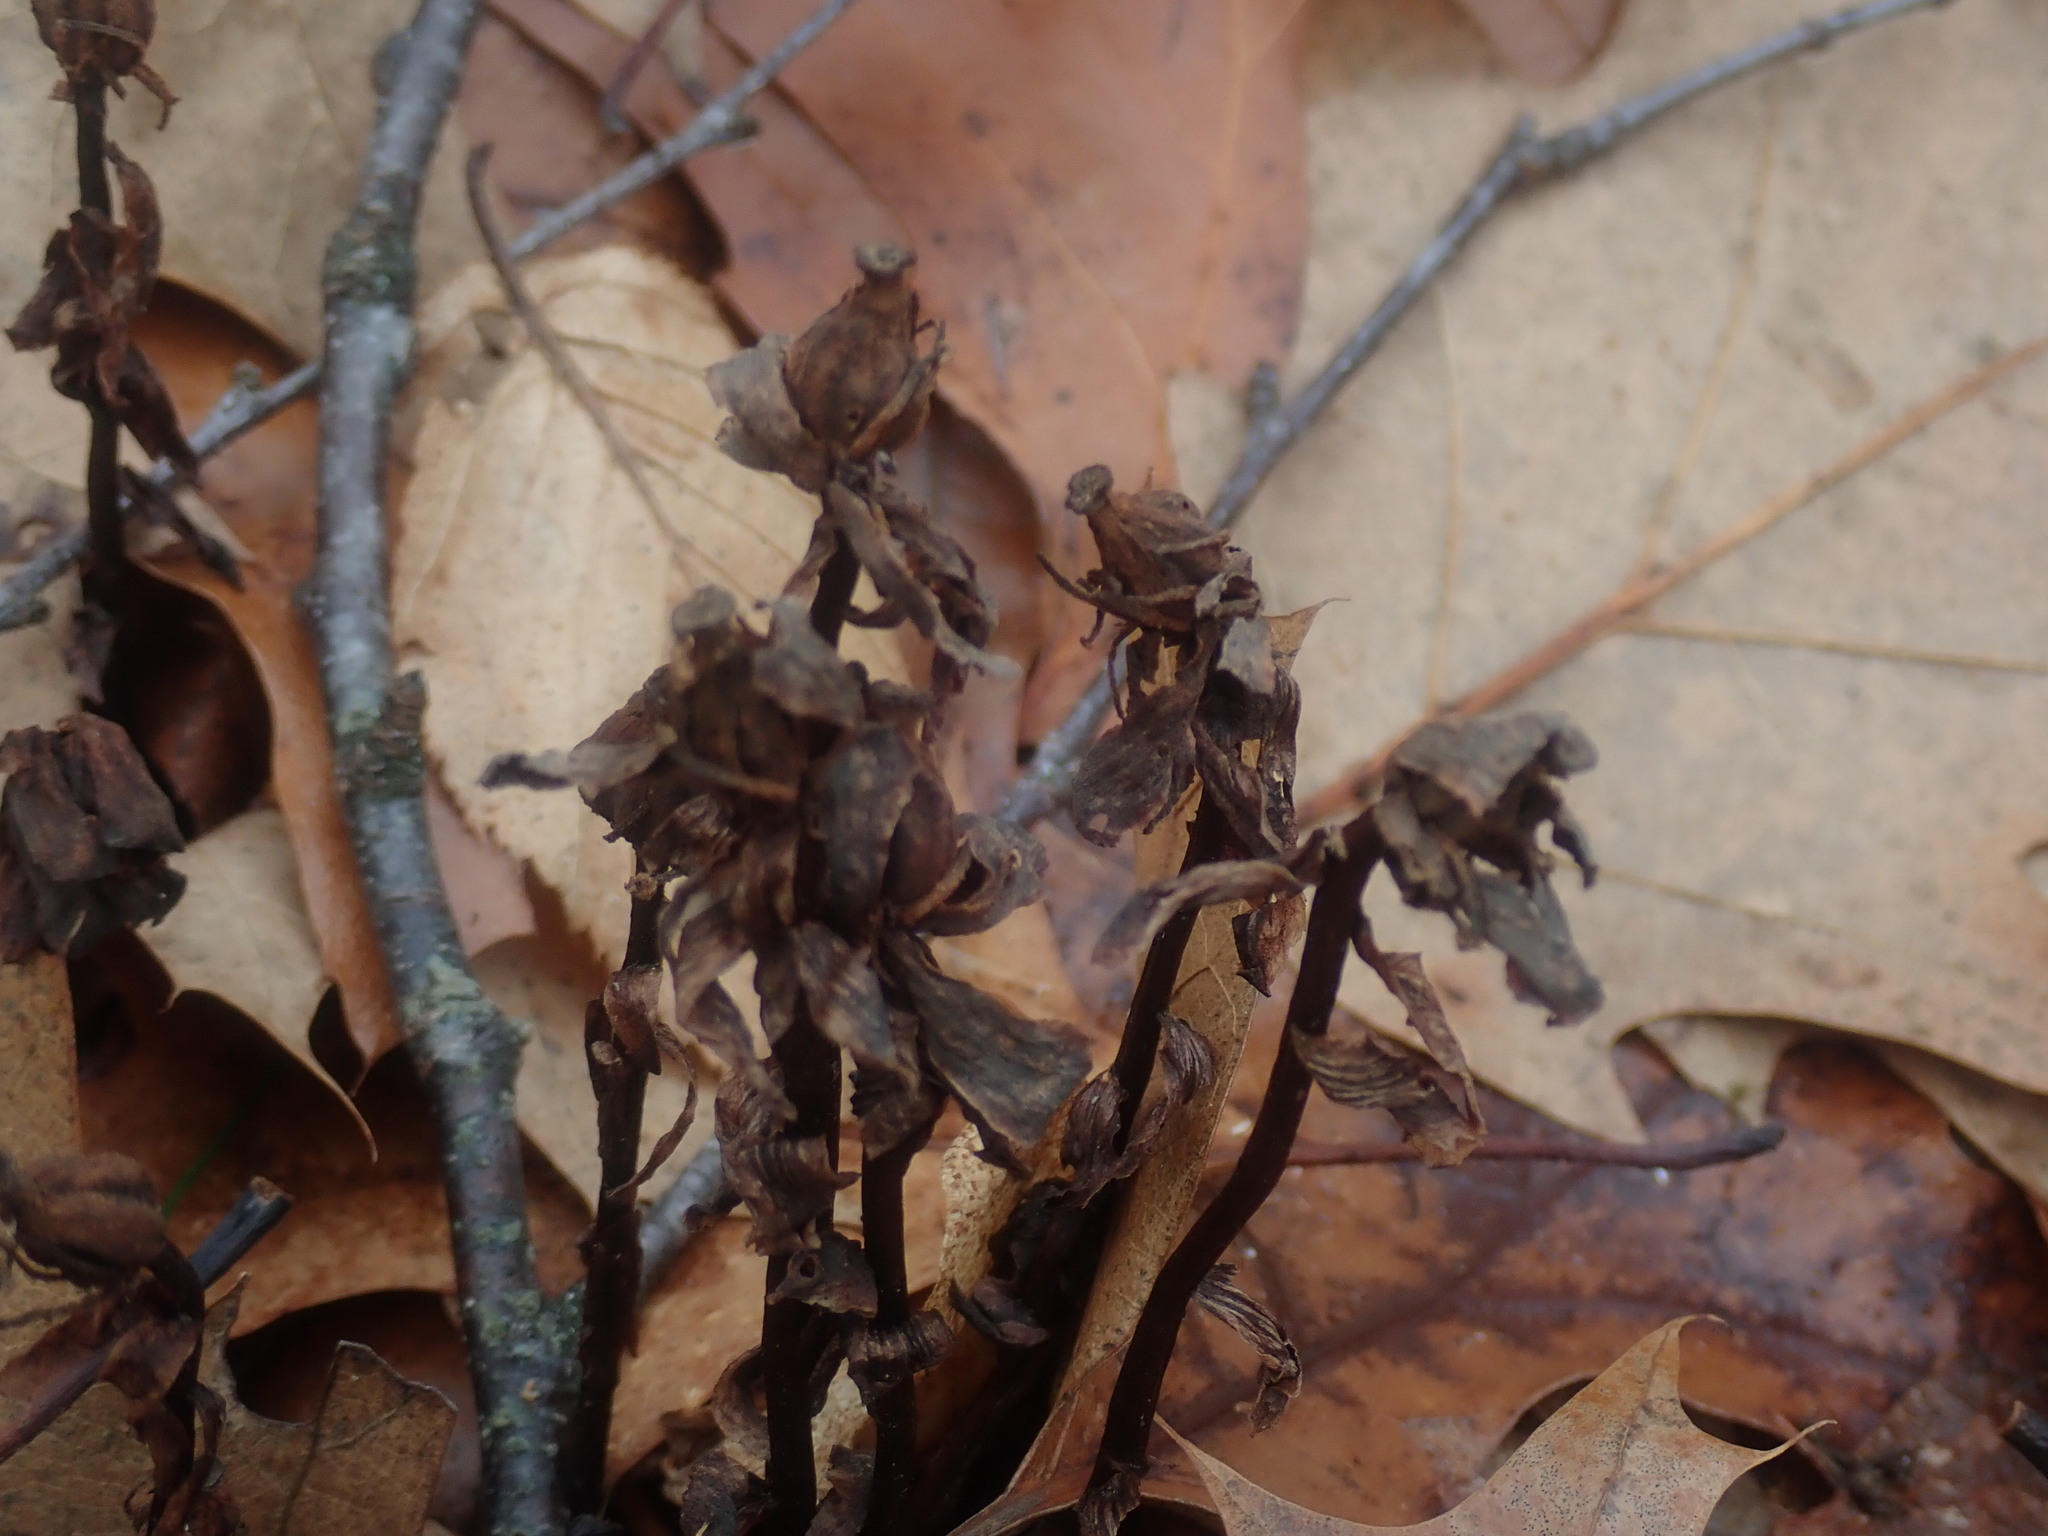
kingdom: Plantae
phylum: Tracheophyta
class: Magnoliopsida
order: Ericales
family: Ericaceae
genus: Monotropa
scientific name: Monotropa uniflora
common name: Convulsion root
